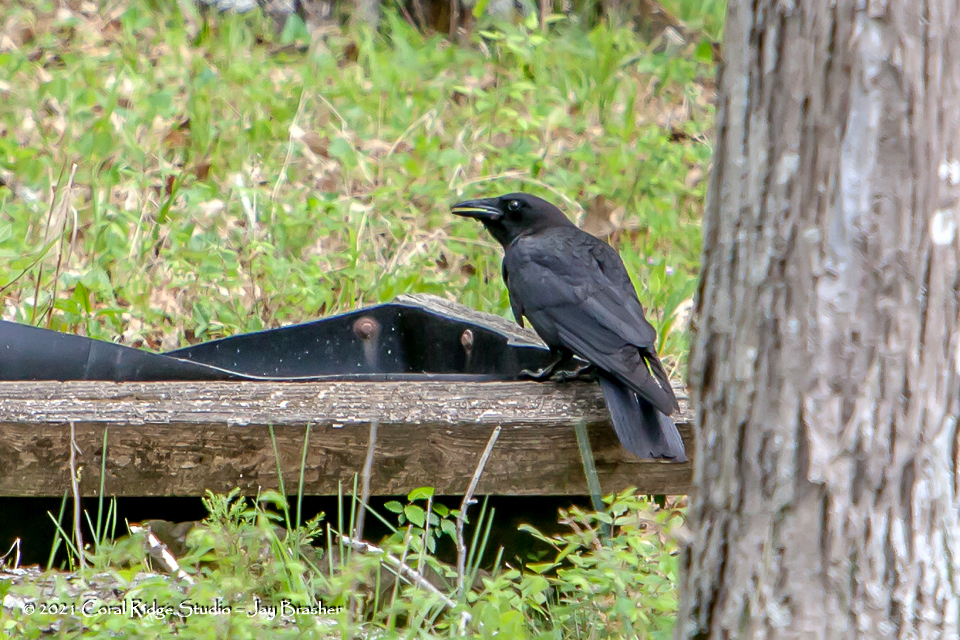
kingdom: Animalia
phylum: Chordata
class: Aves
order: Passeriformes
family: Corvidae
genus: Corvus
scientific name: Corvus brachyrhynchos
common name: American crow
